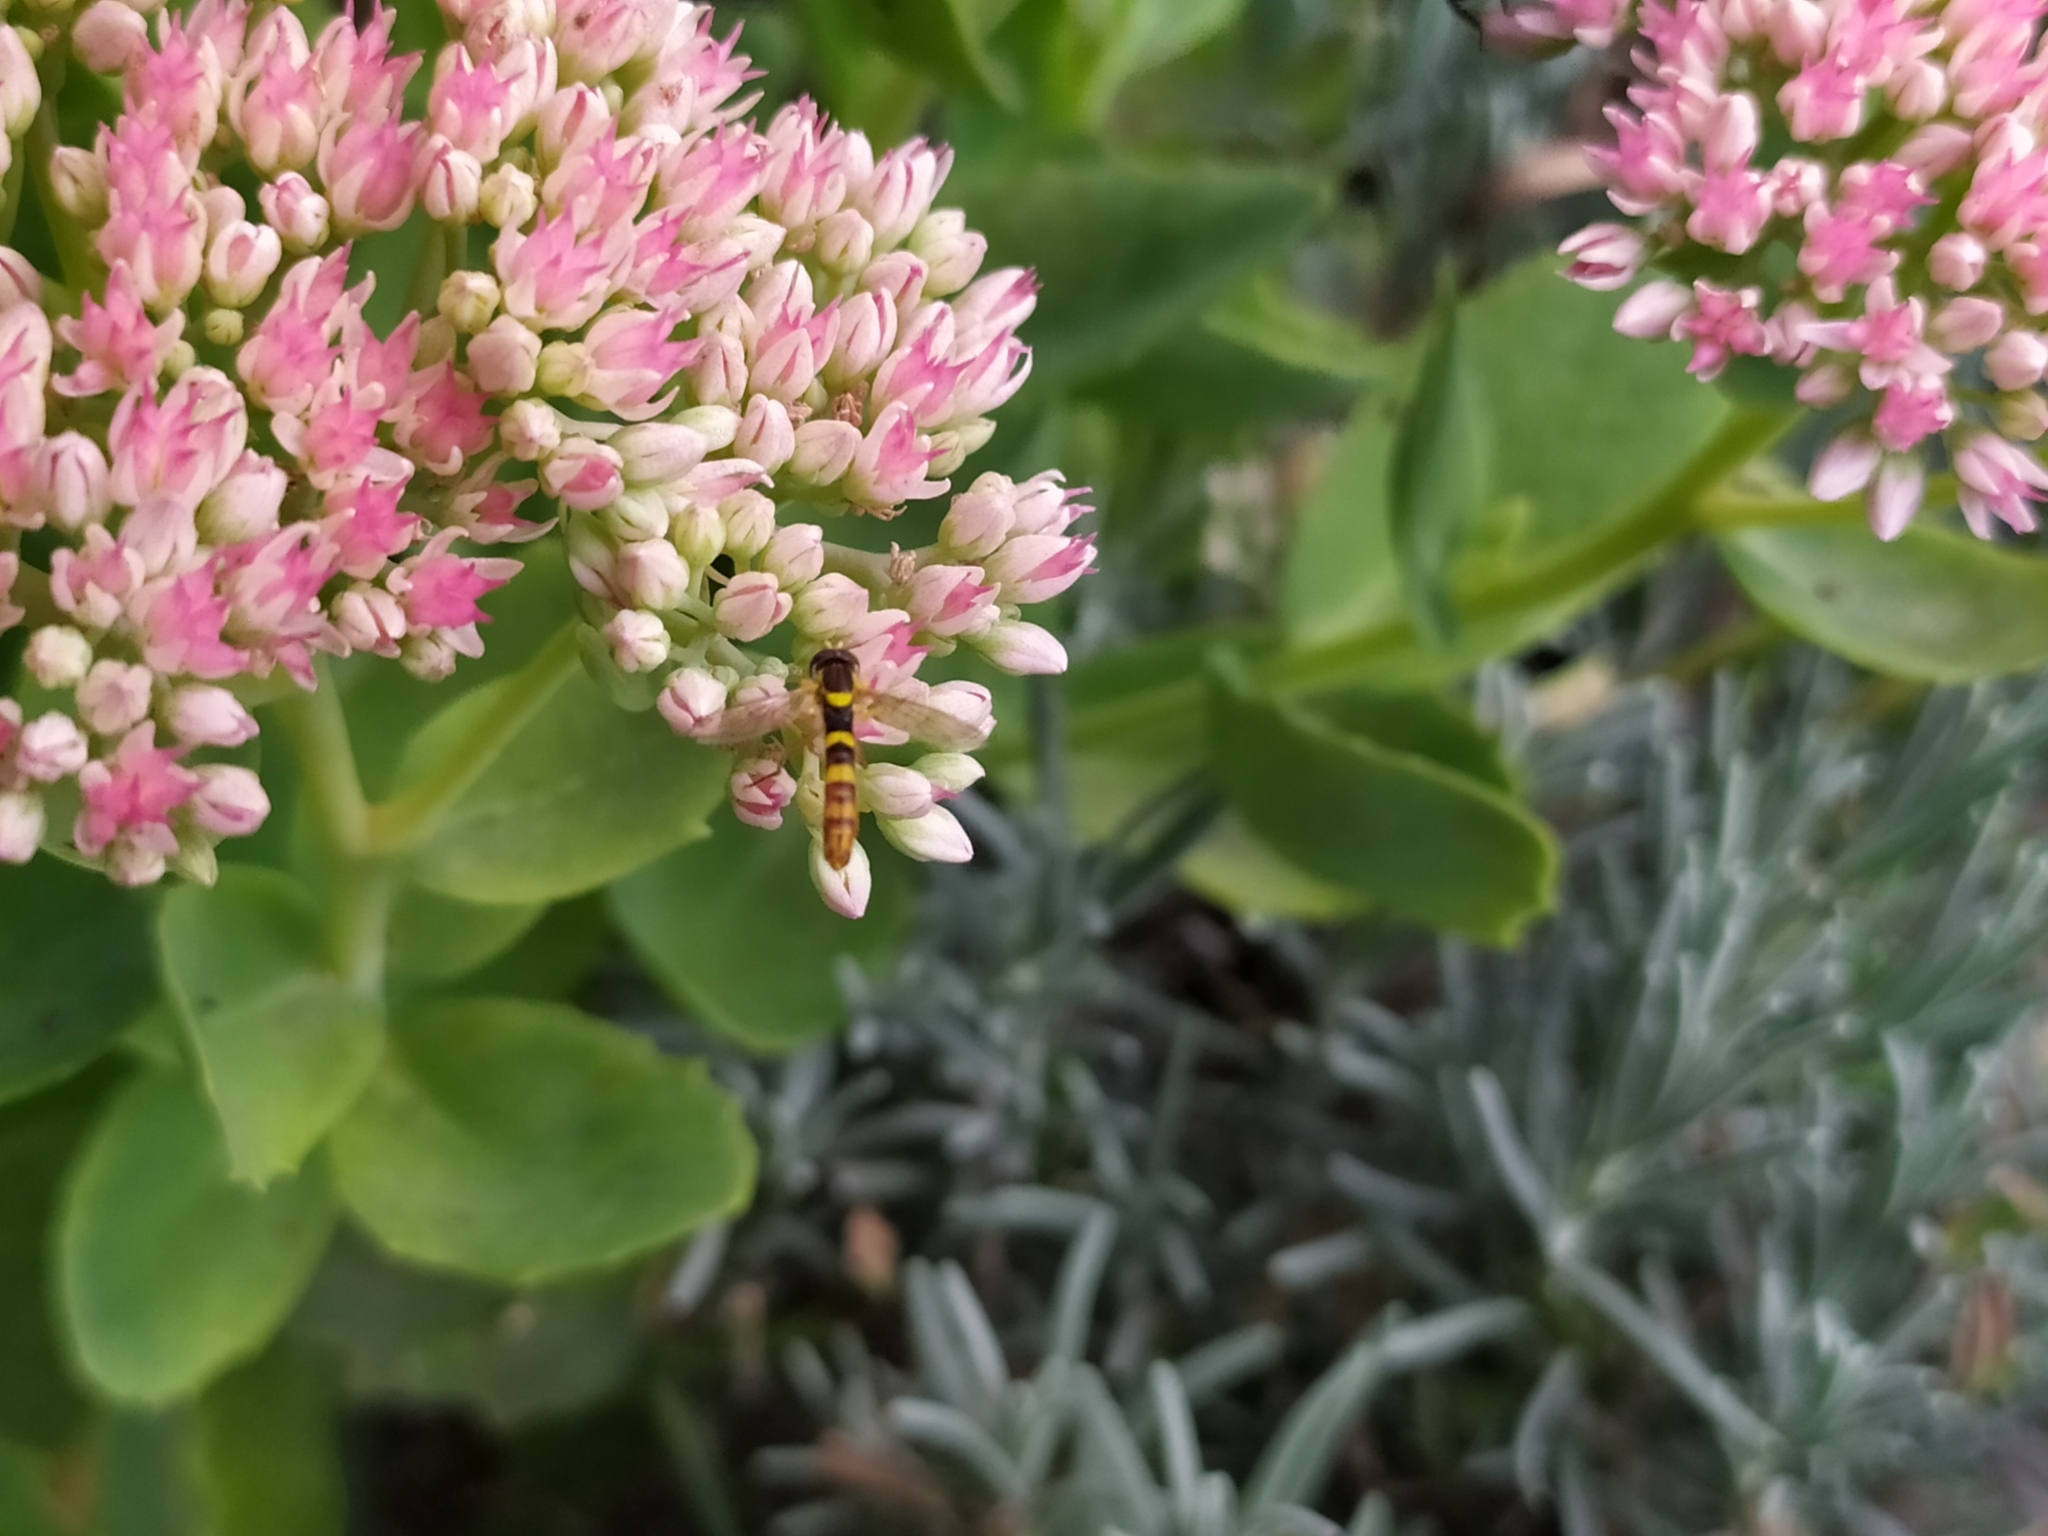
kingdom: Animalia
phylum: Arthropoda
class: Insecta
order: Diptera
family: Syrphidae
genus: Sphaerophoria
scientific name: Sphaerophoria scripta
